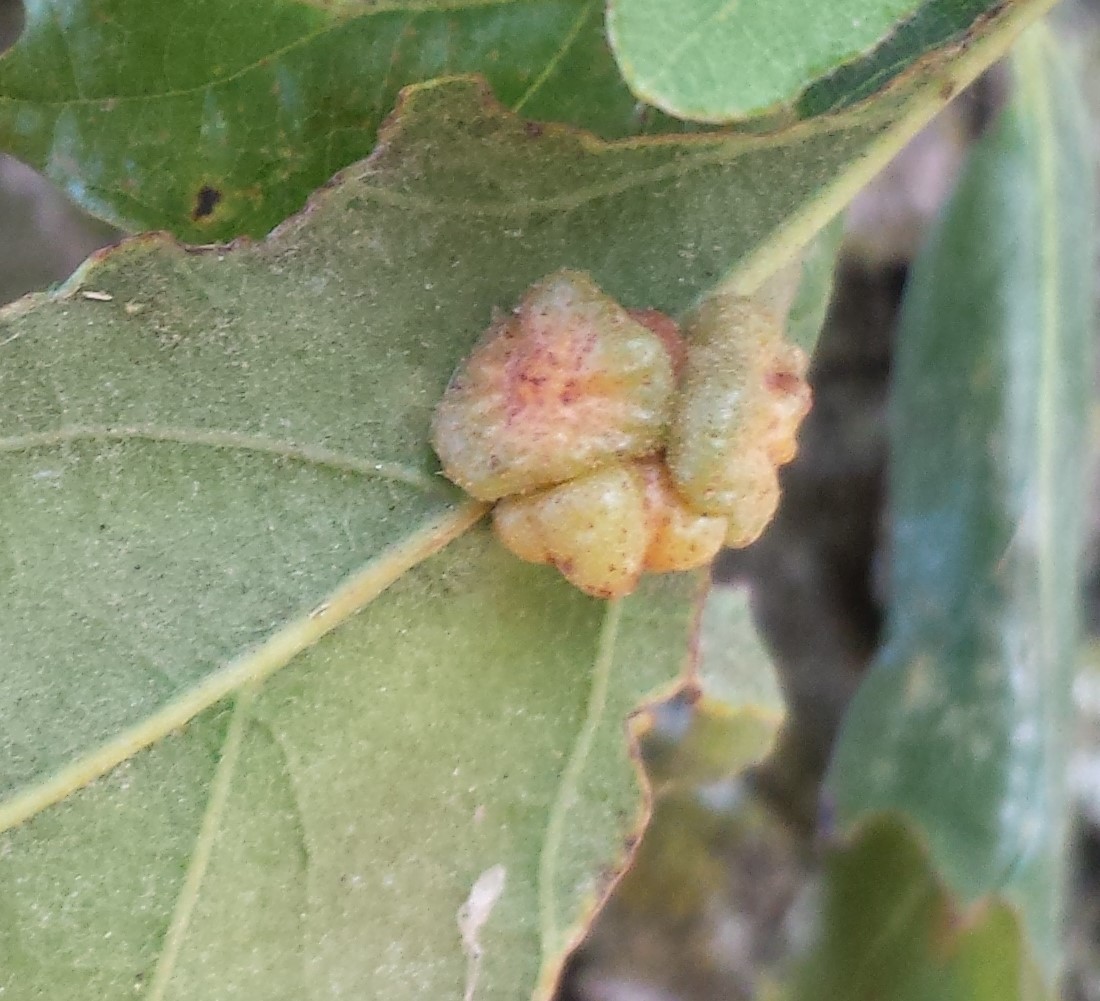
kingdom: Animalia
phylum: Arthropoda
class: Insecta
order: Hymenoptera
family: Cynipidae
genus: Andricus
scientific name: Andricus
